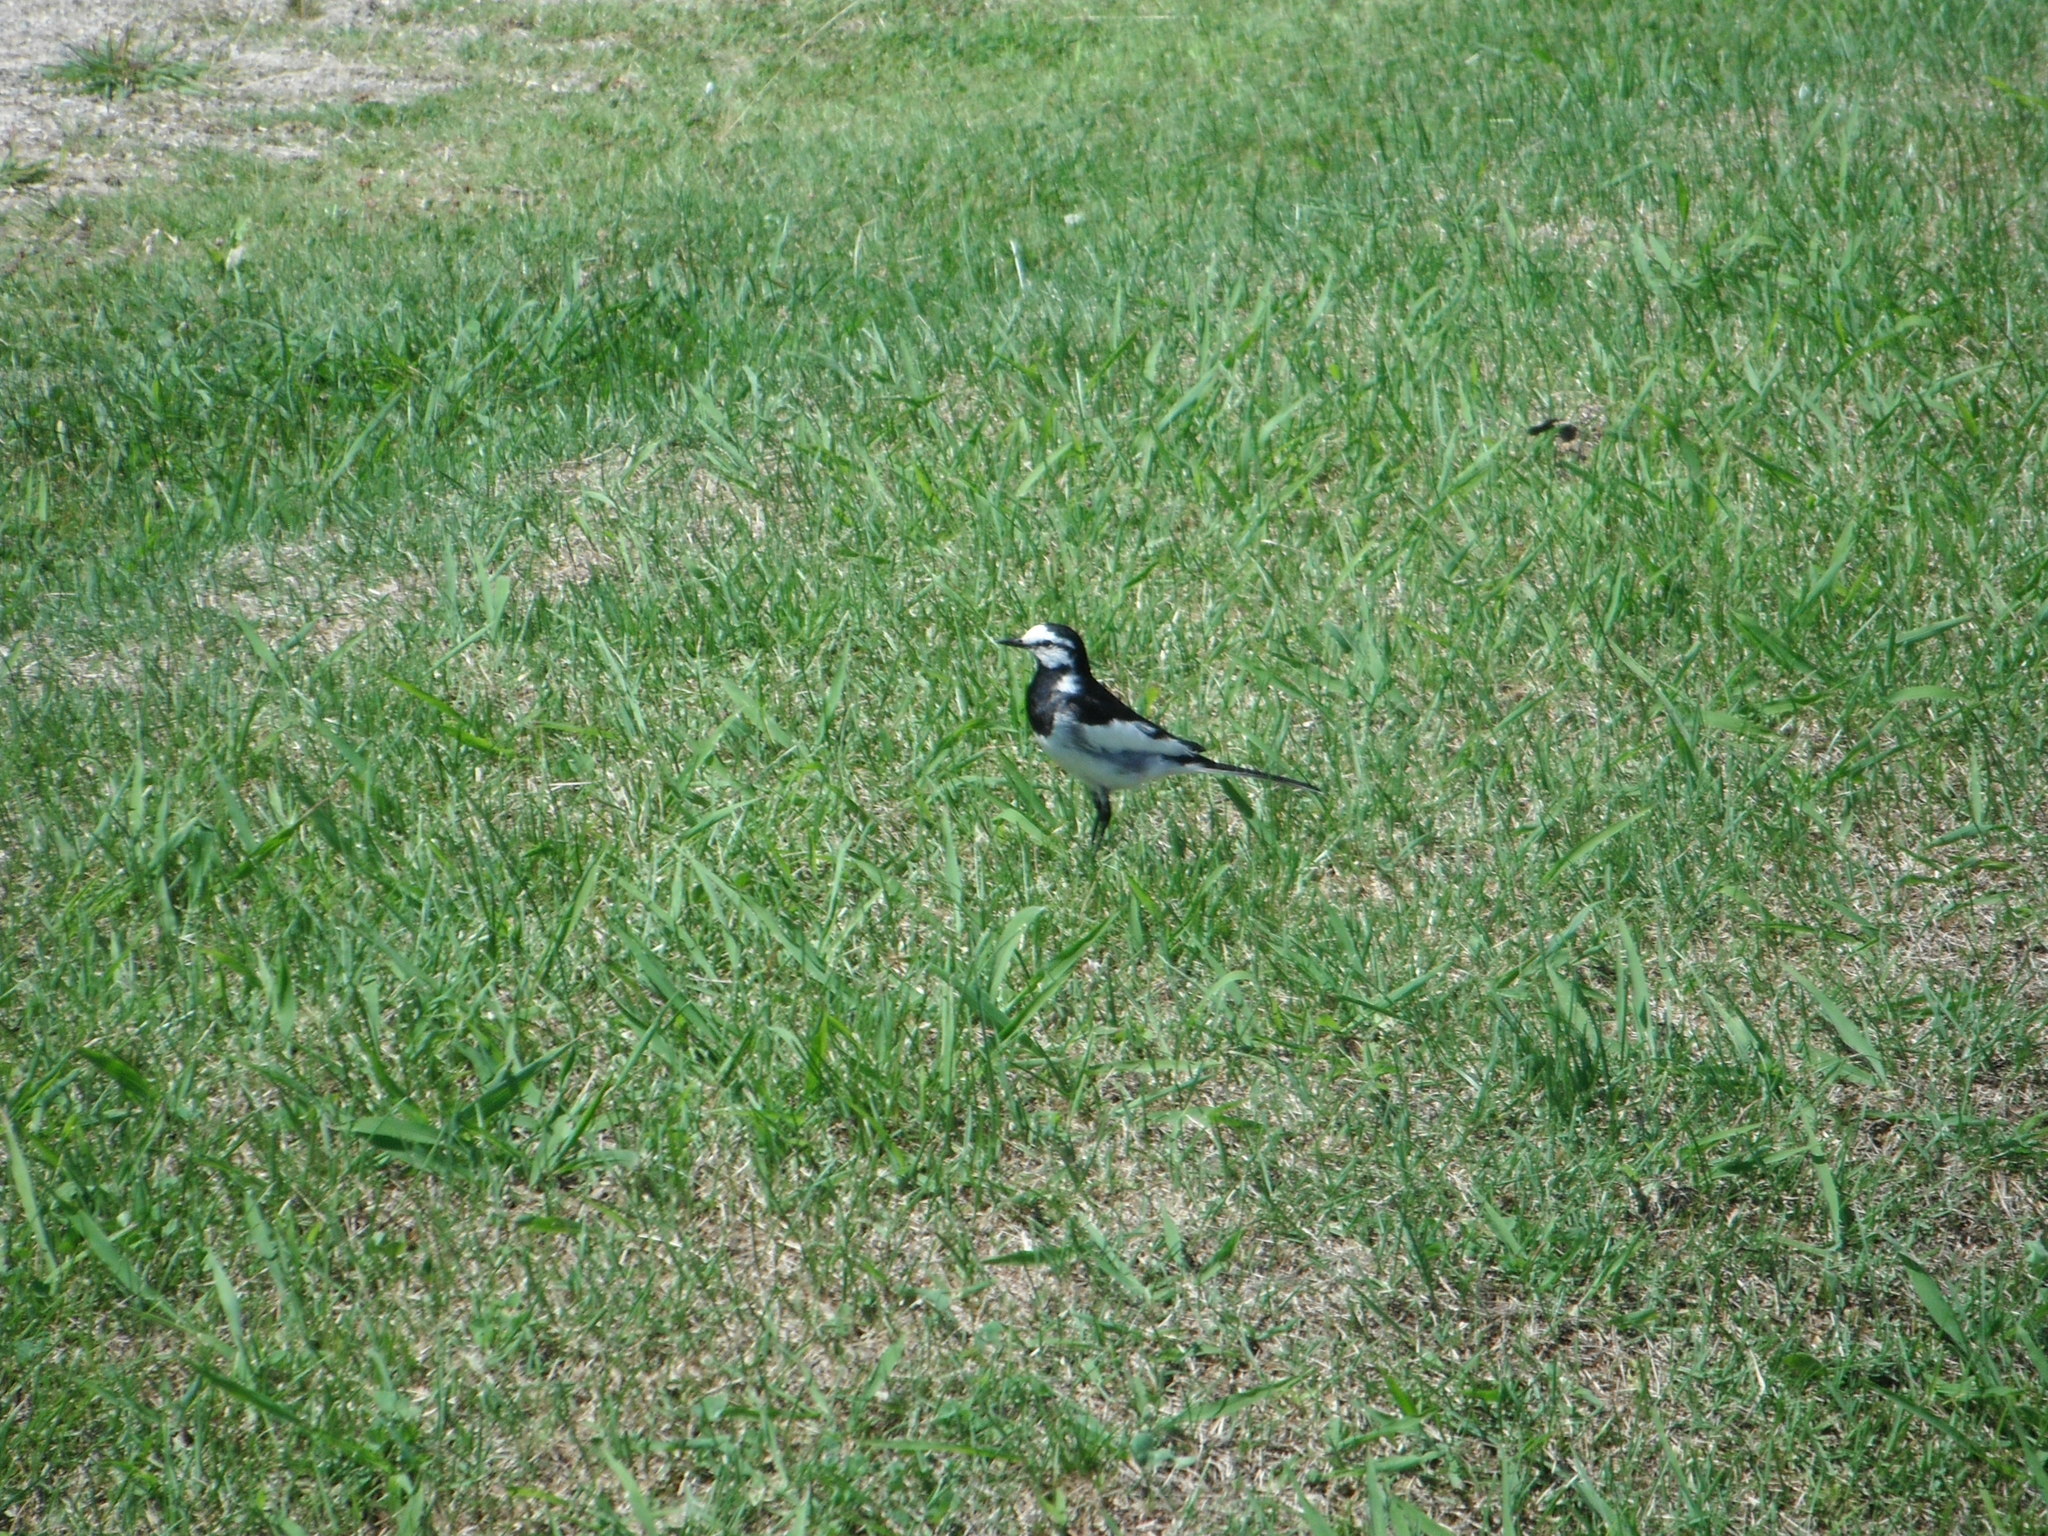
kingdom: Animalia
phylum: Chordata
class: Aves
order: Passeriformes
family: Motacillidae
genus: Motacilla
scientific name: Motacilla alba
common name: White wagtail
